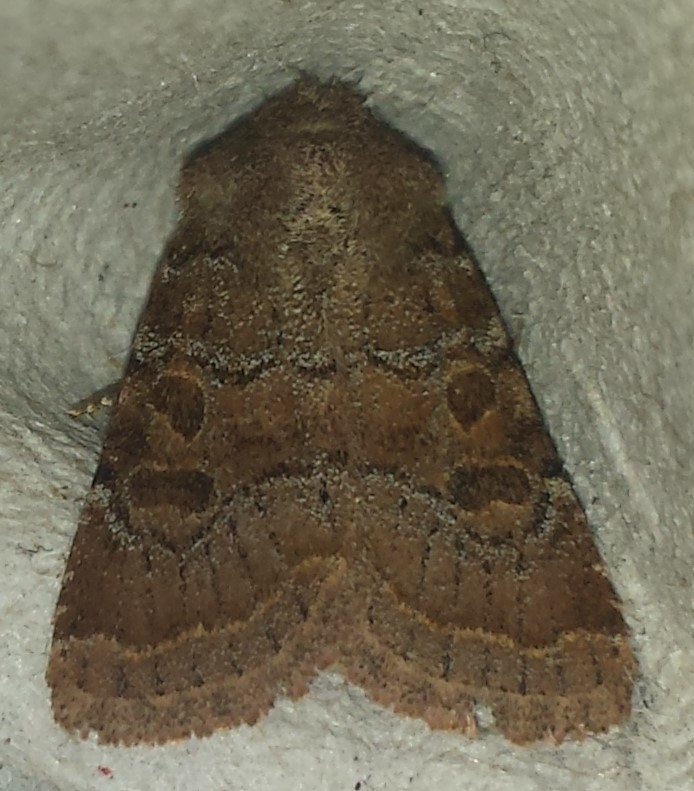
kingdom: Animalia
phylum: Arthropoda
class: Insecta
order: Lepidoptera
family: Noctuidae
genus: Trichopolia
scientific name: Trichopolia
